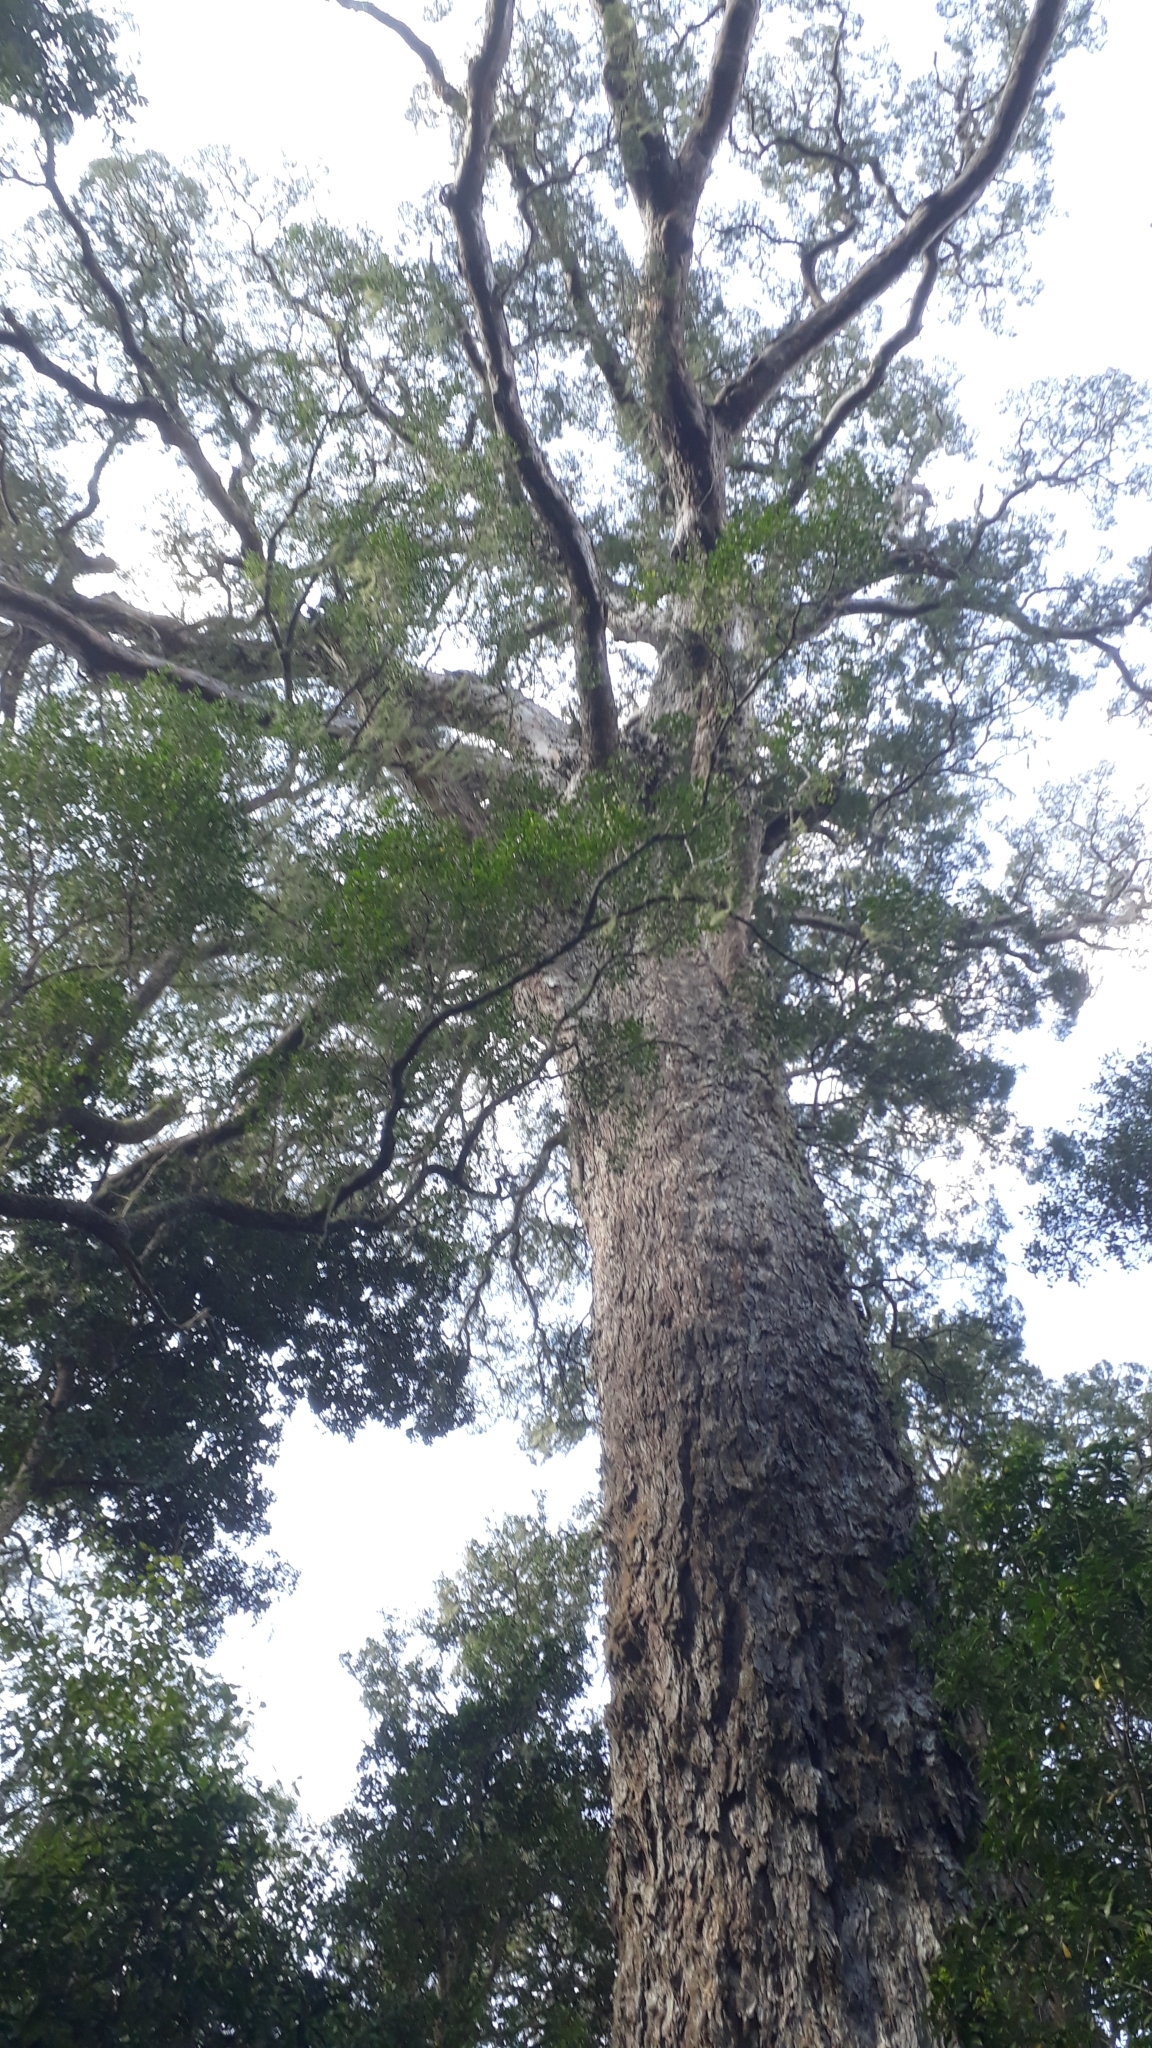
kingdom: Plantae
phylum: Tracheophyta
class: Pinopsida
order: Pinales
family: Podocarpaceae
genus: Afrocarpus
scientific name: Afrocarpus falcatus
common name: Bastard yellowwood
